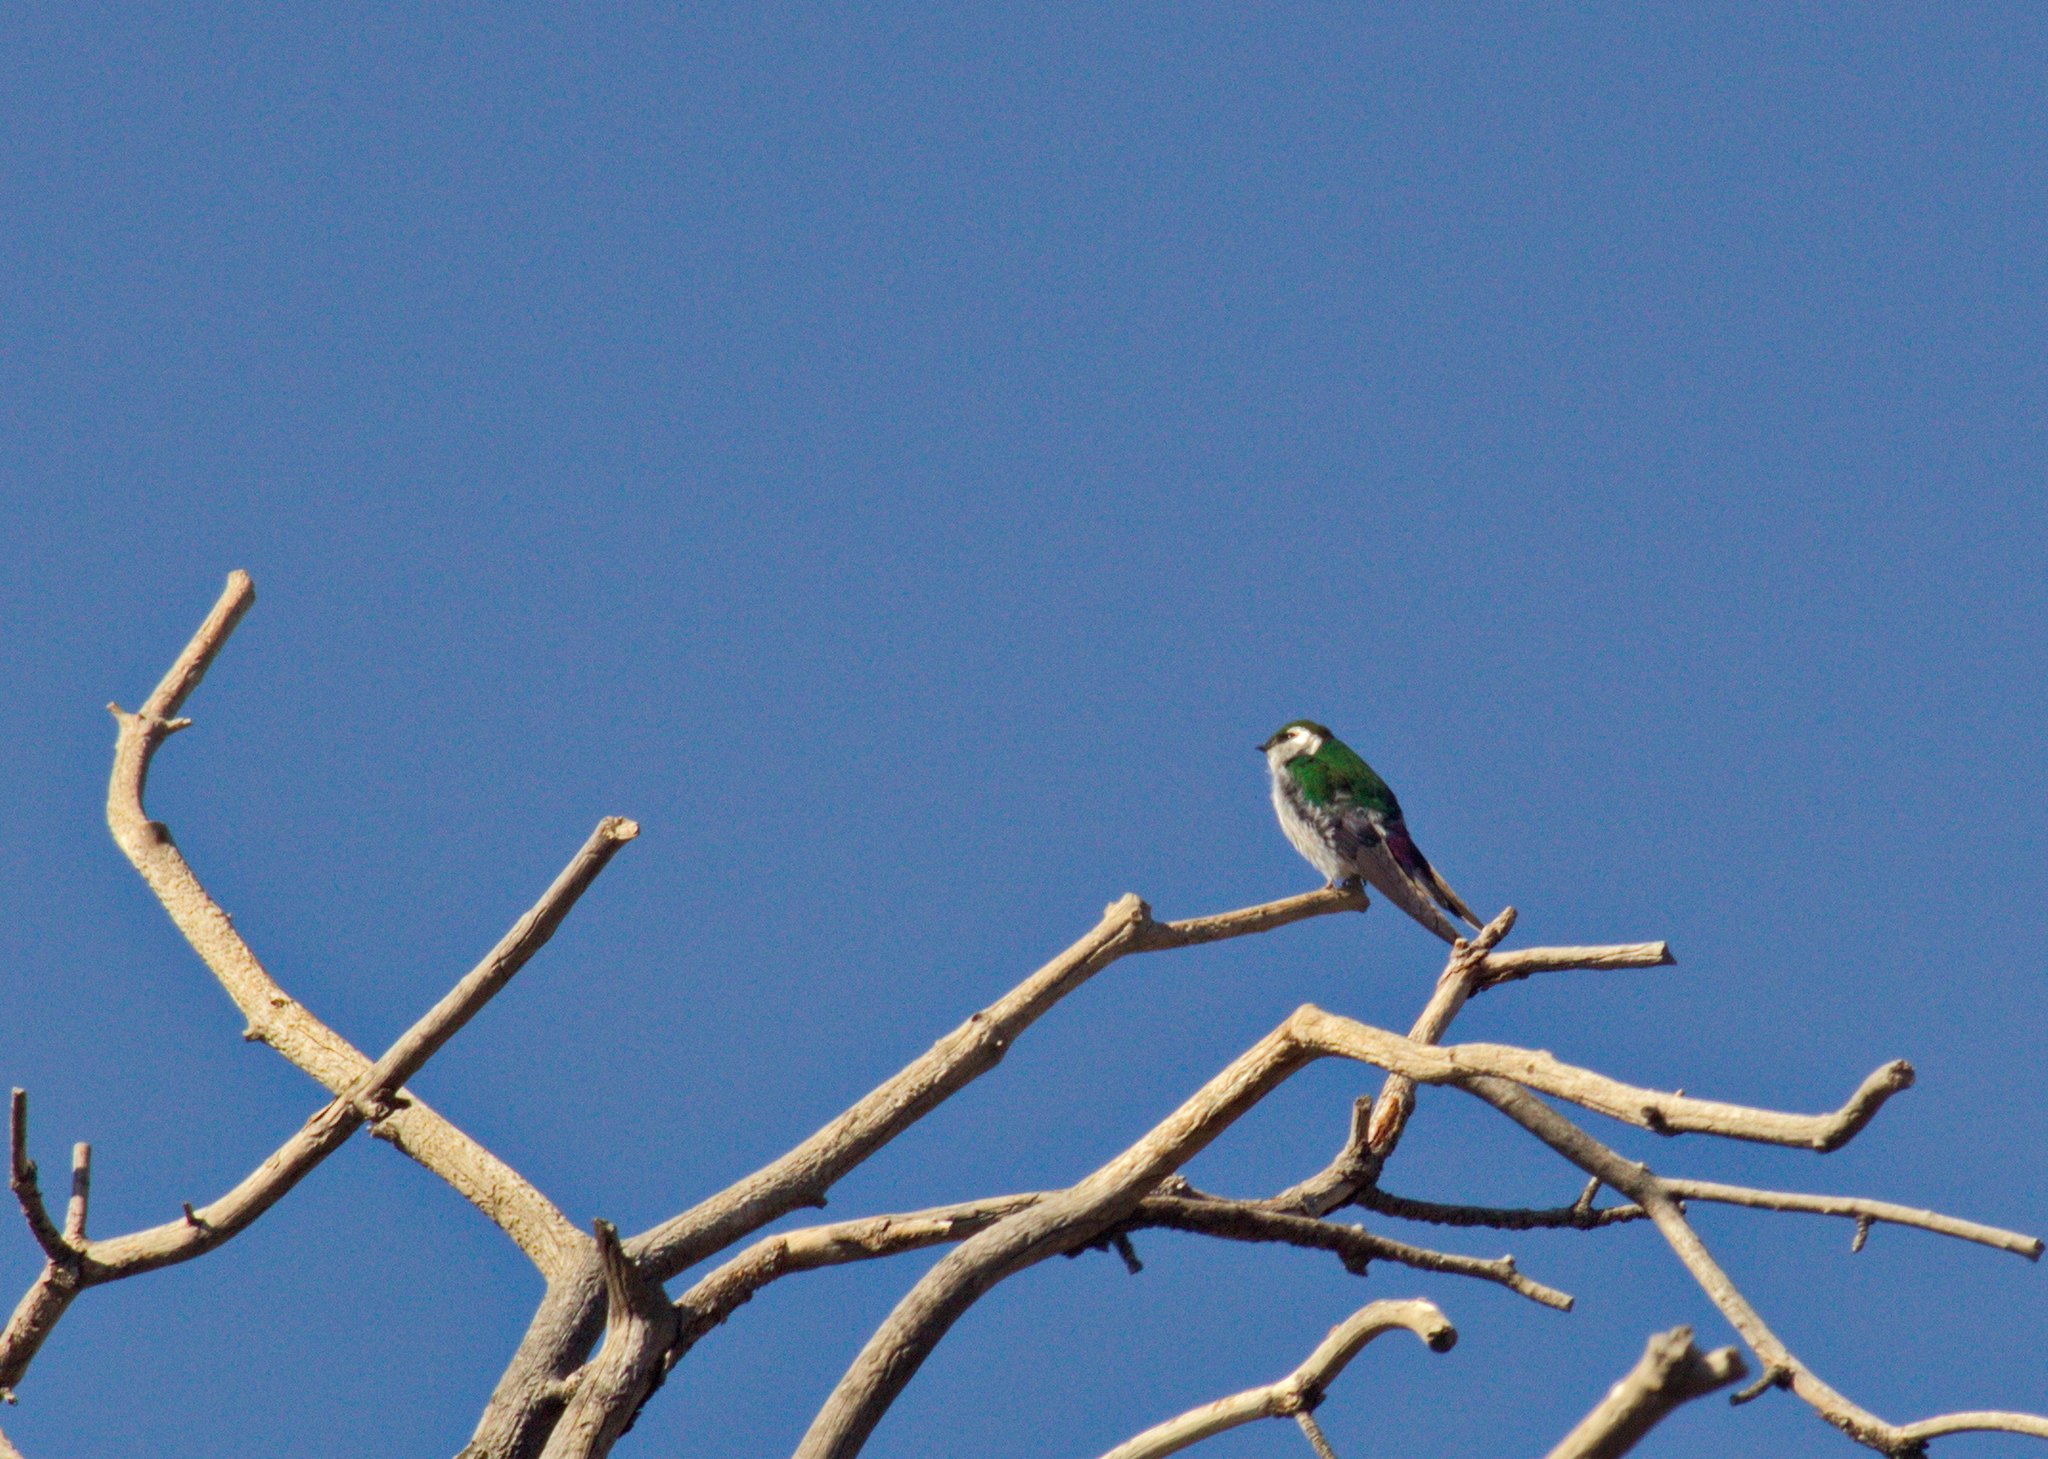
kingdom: Animalia
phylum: Chordata
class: Aves
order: Passeriformes
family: Hirundinidae
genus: Tachycineta
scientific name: Tachycineta thalassina
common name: Violet-green swallow
